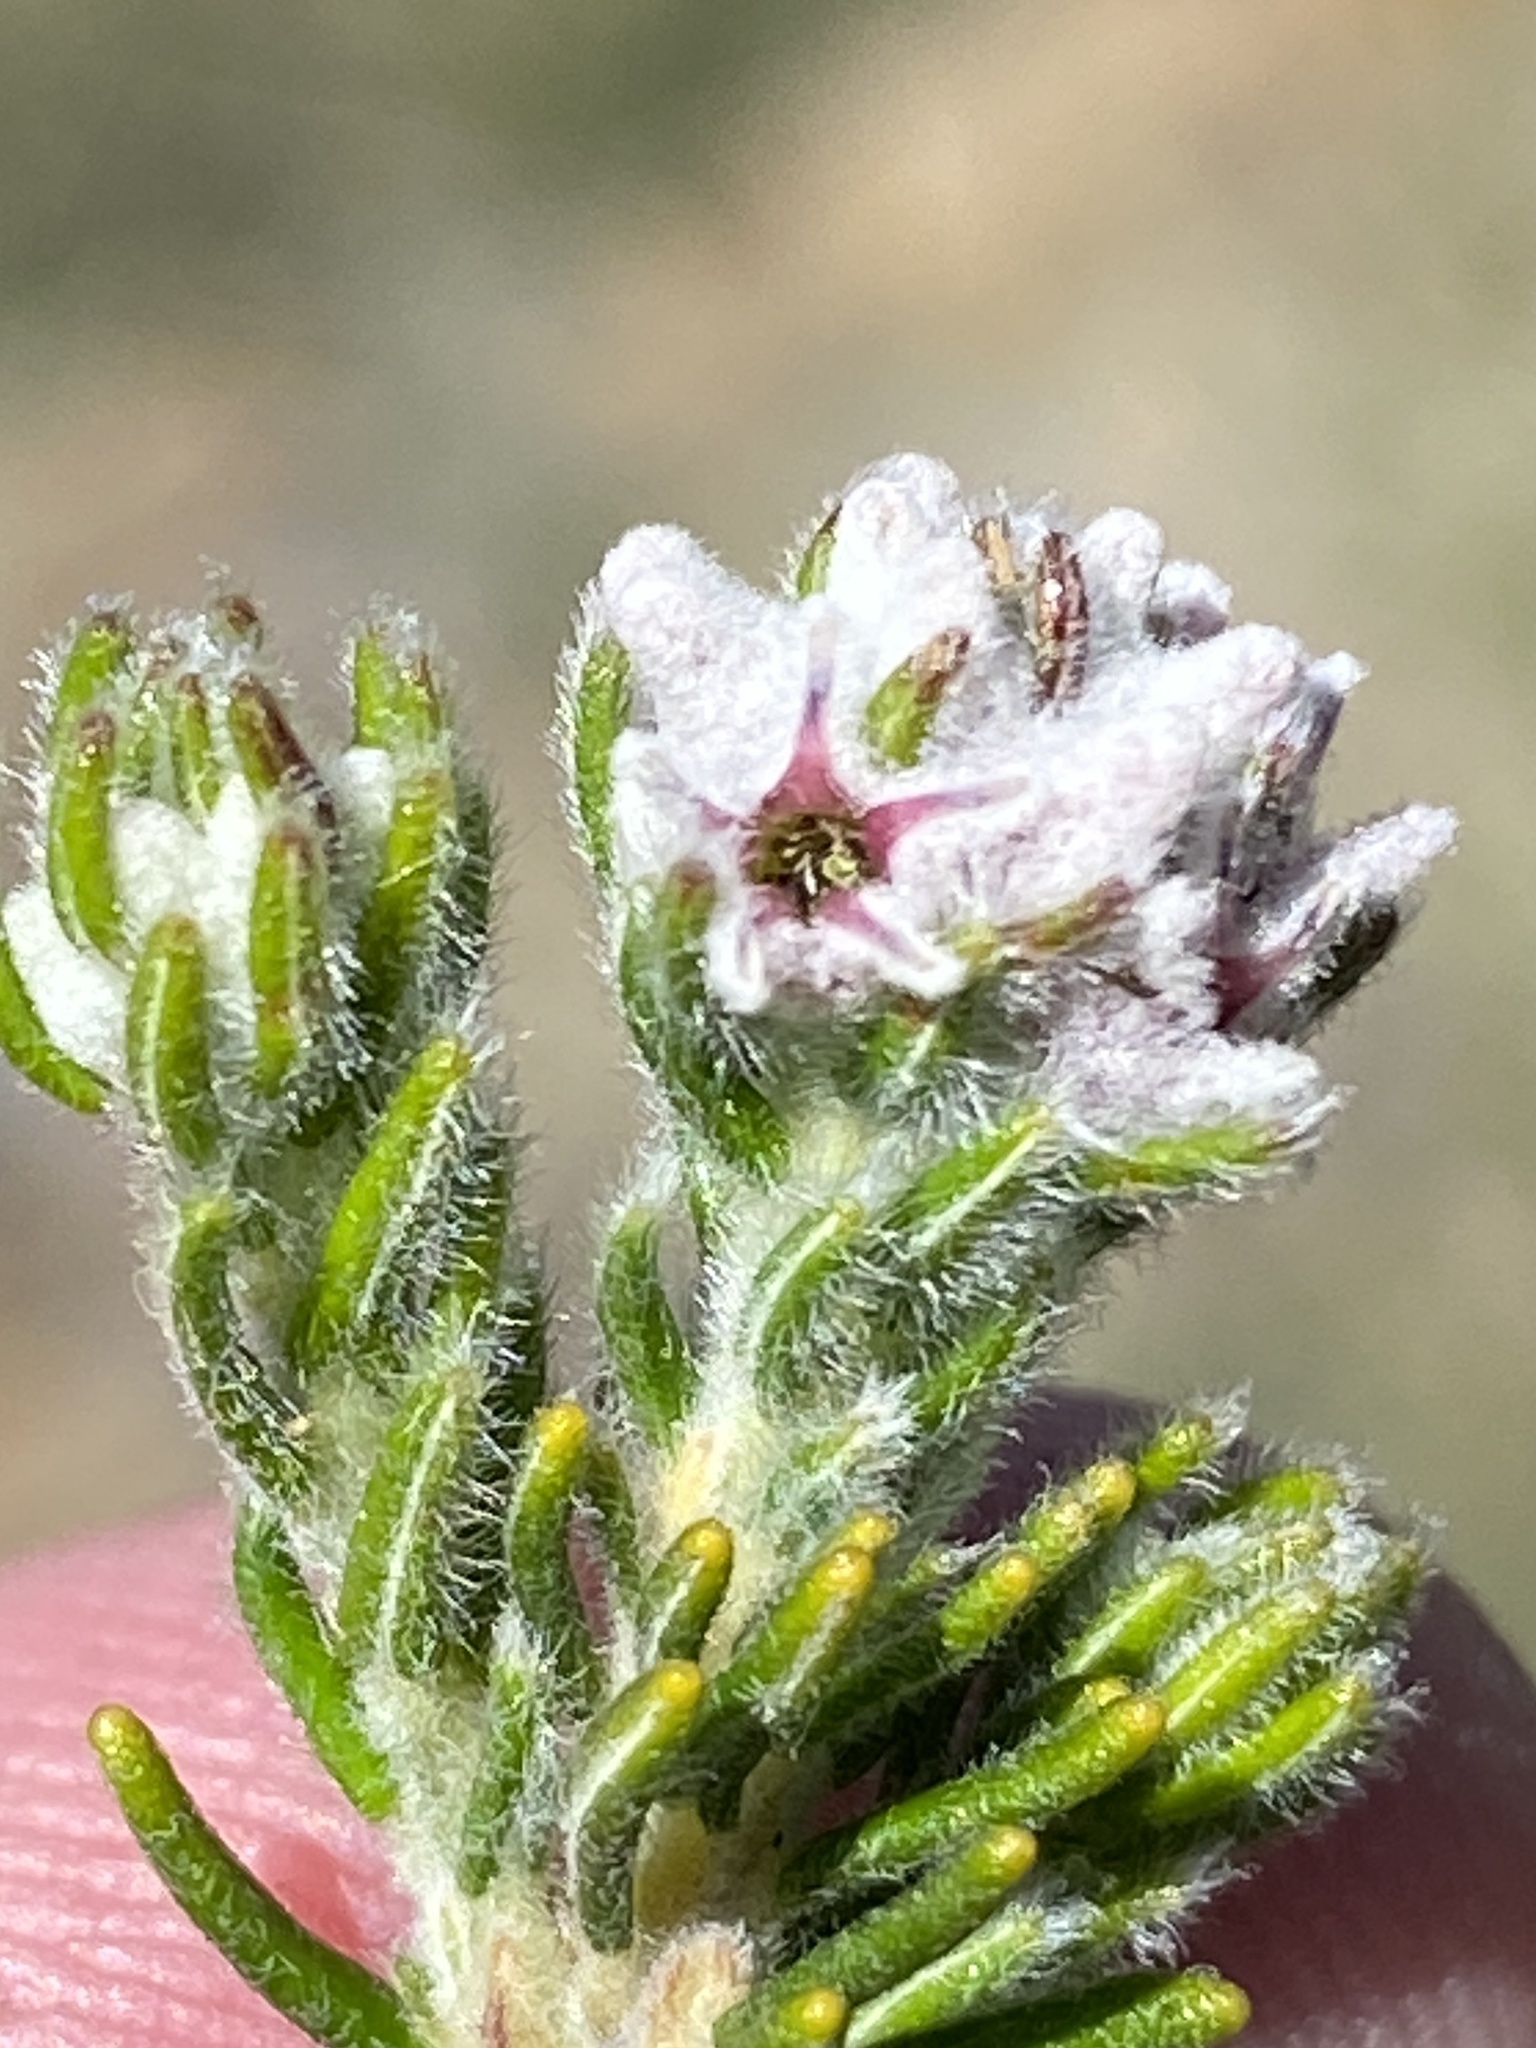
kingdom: Plantae
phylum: Tracheophyta
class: Magnoliopsida
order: Rosales
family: Rhamnaceae
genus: Phylica
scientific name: Phylica intrusa
